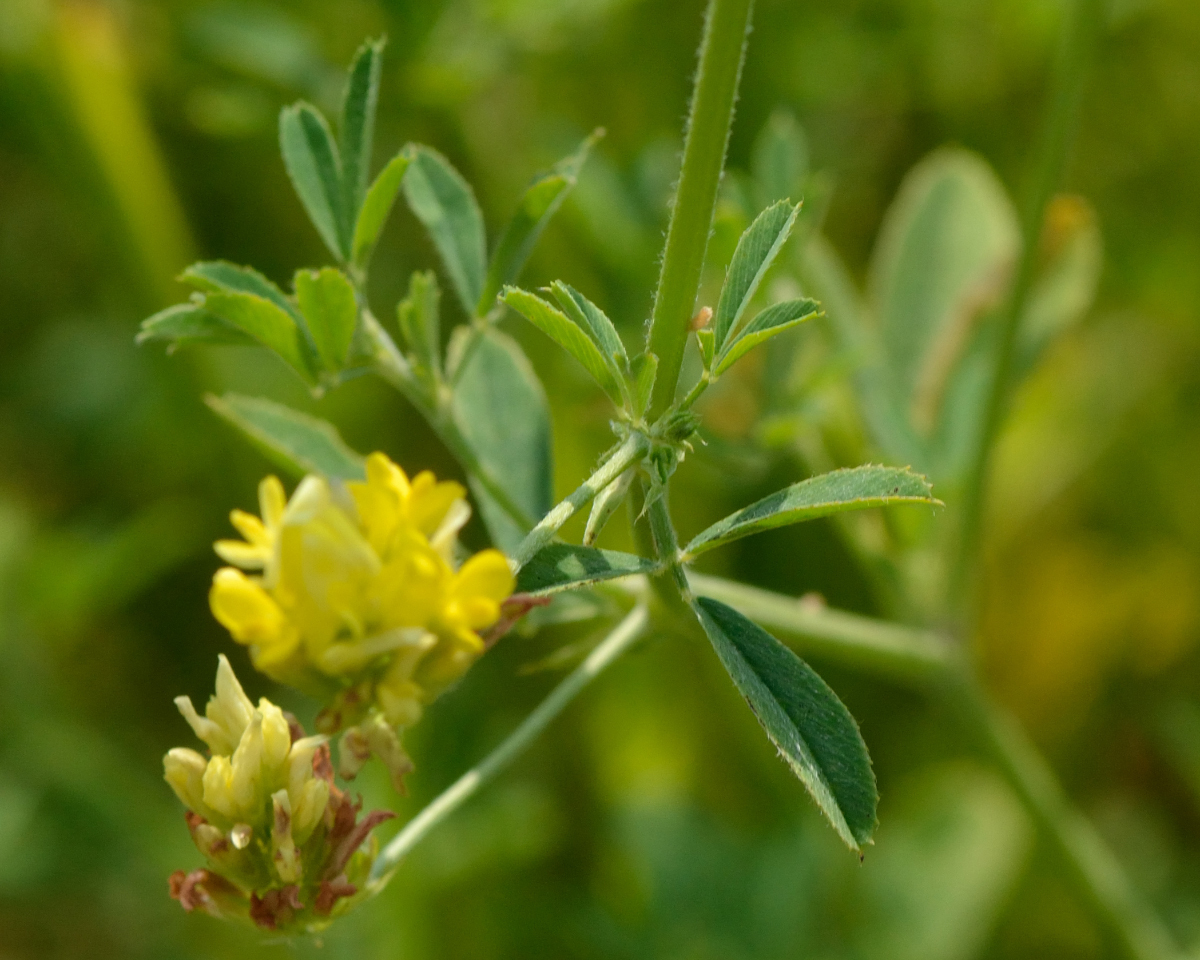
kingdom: Plantae
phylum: Tracheophyta
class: Magnoliopsida
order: Fabales
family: Fabaceae
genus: Medicago
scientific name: Medicago falcata
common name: Sickle medick
